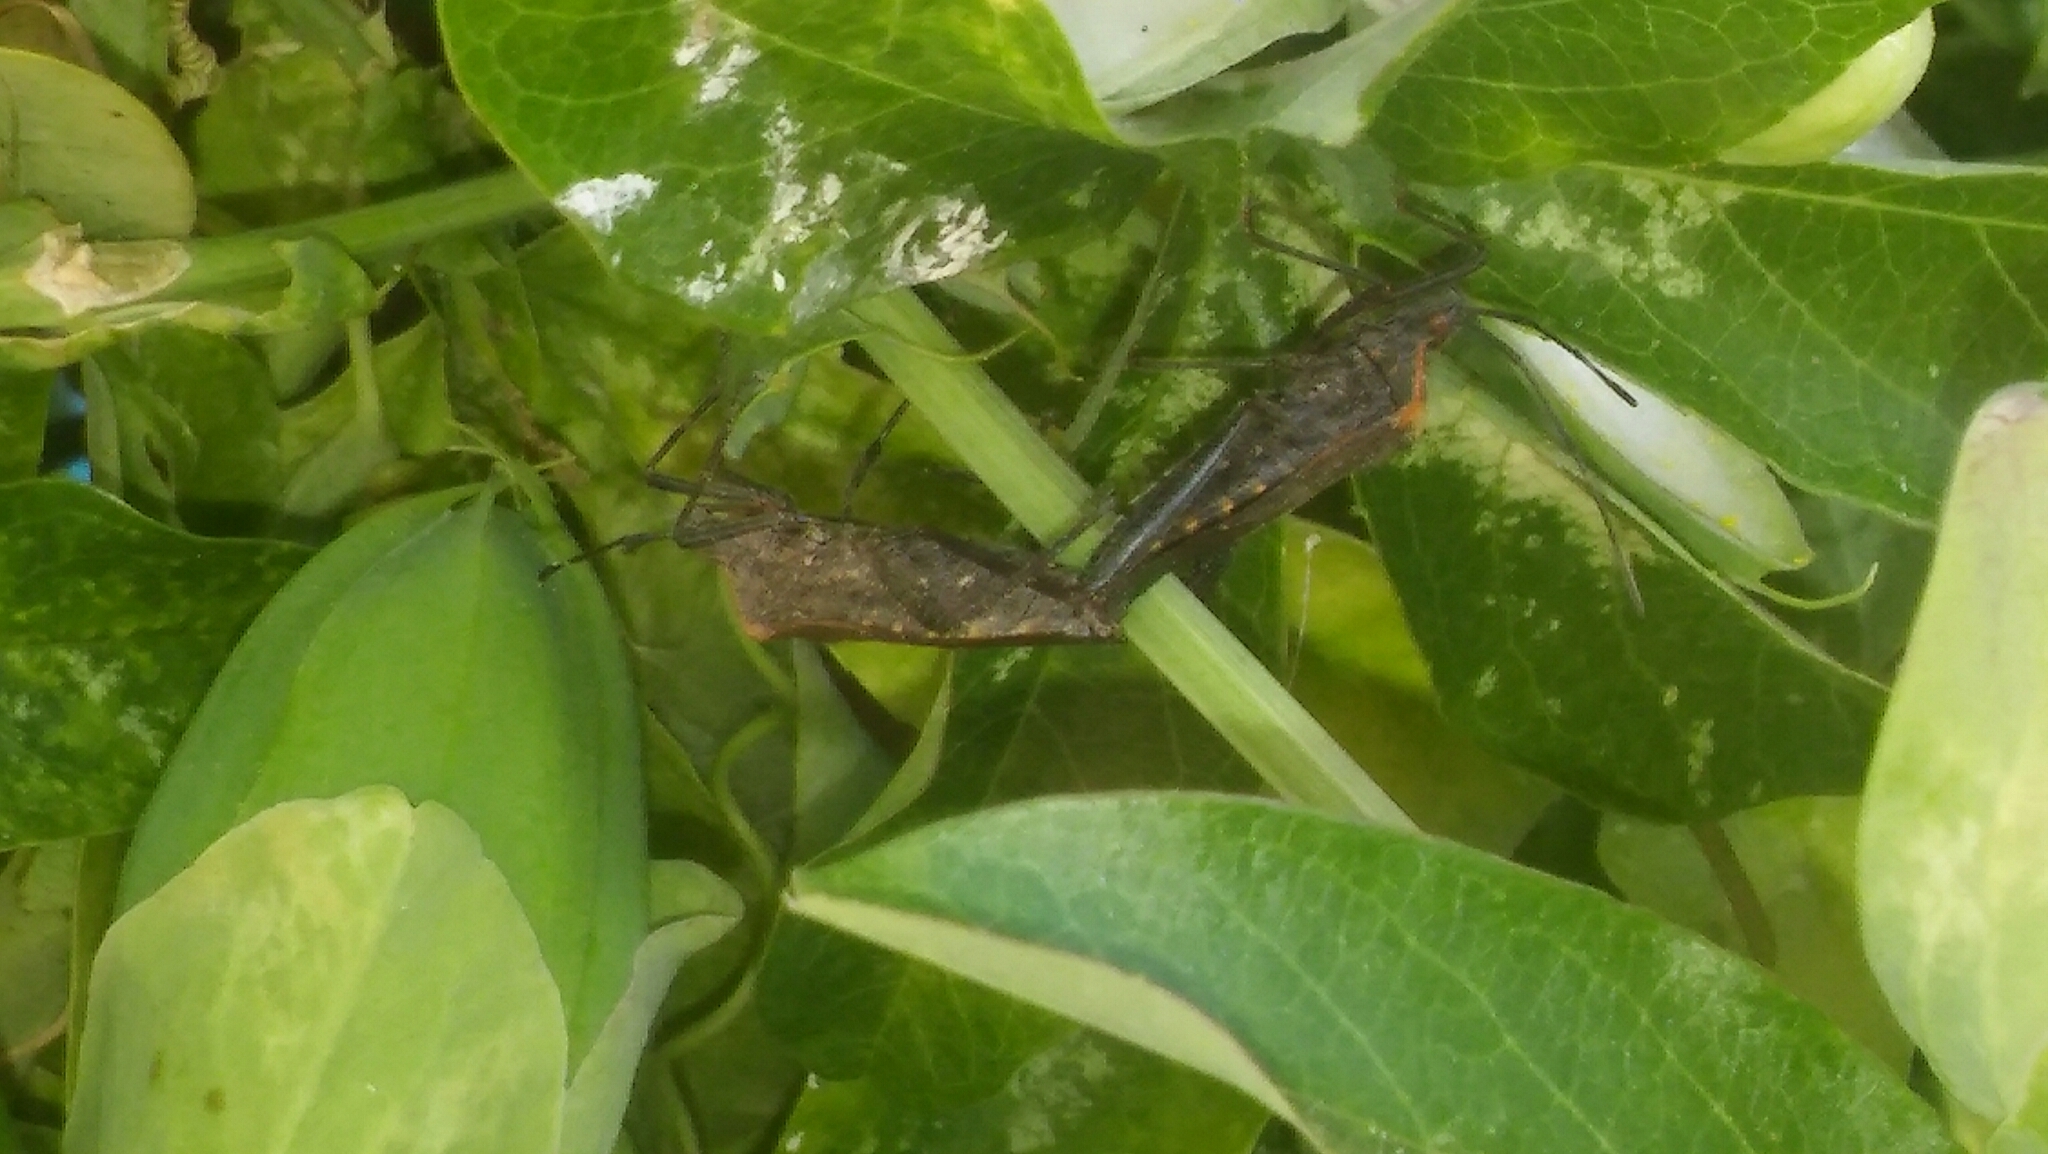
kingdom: Animalia
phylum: Arthropoda
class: Insecta
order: Hemiptera
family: Coreidae
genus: Phthiacnemia
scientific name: Phthiacnemia picta
